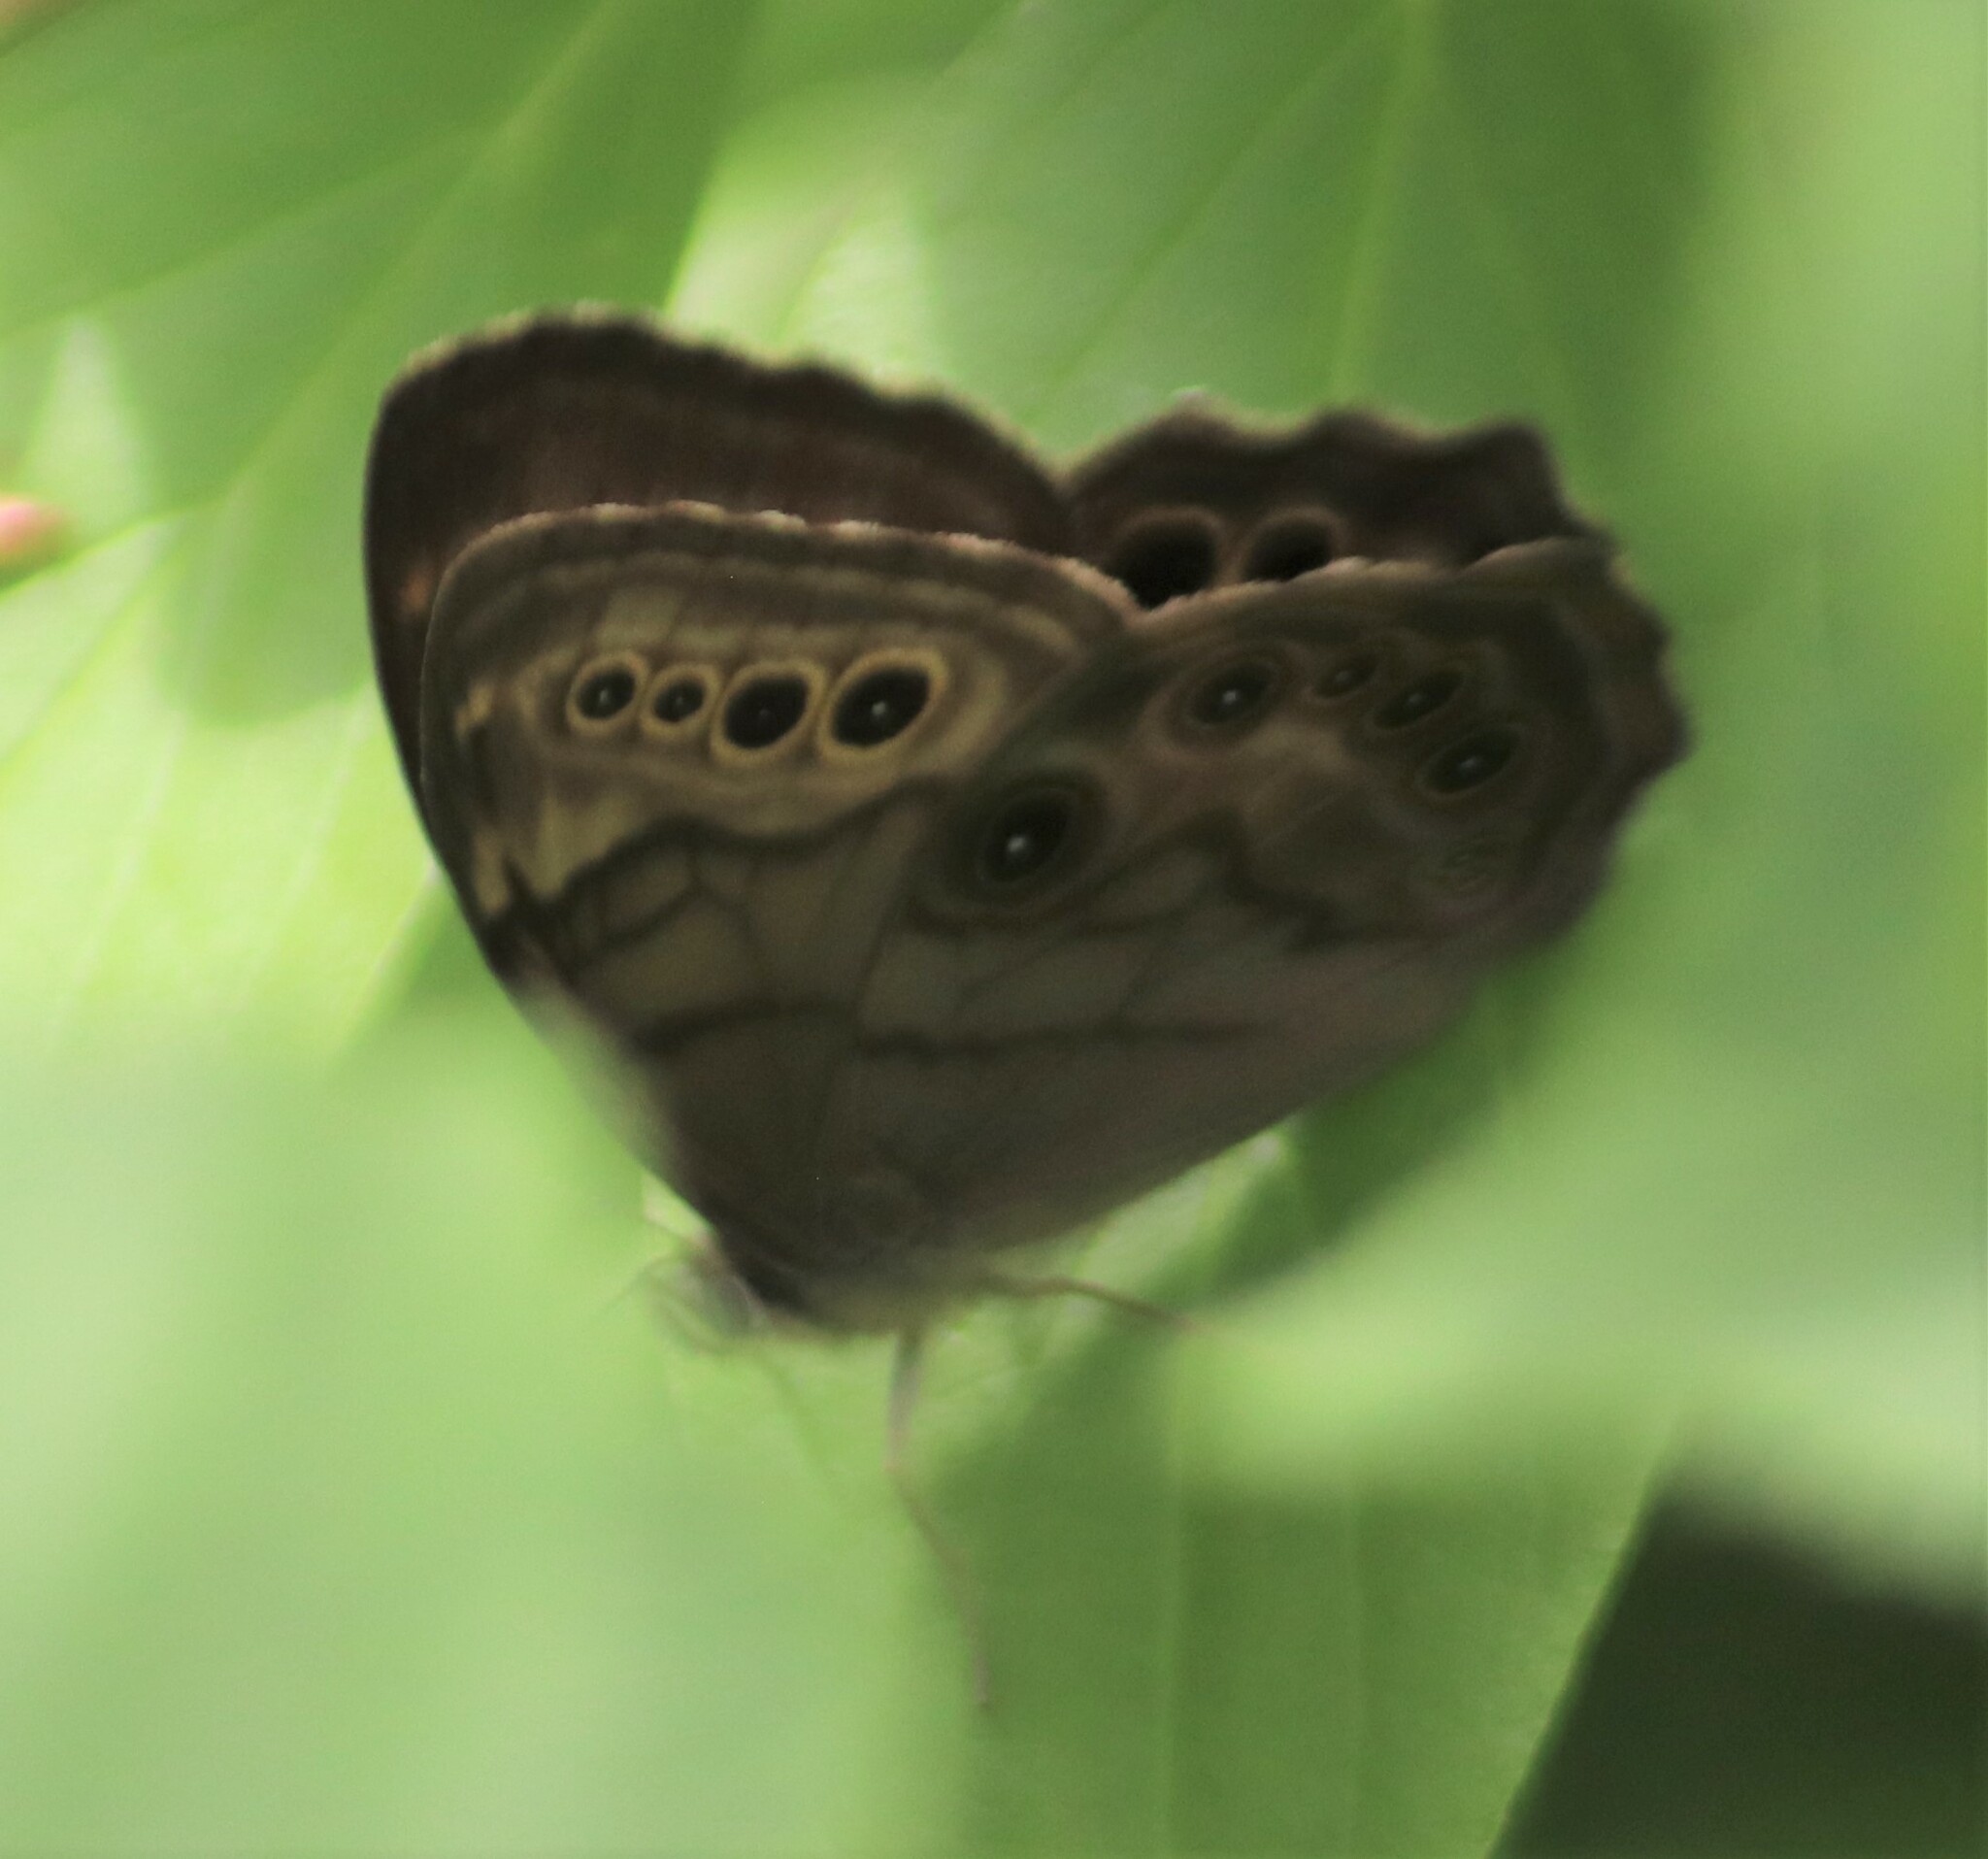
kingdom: Animalia
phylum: Arthropoda
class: Insecta
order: Lepidoptera
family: Nymphalidae
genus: Lethe
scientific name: Lethe anthedon
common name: Northern pearly-eye
